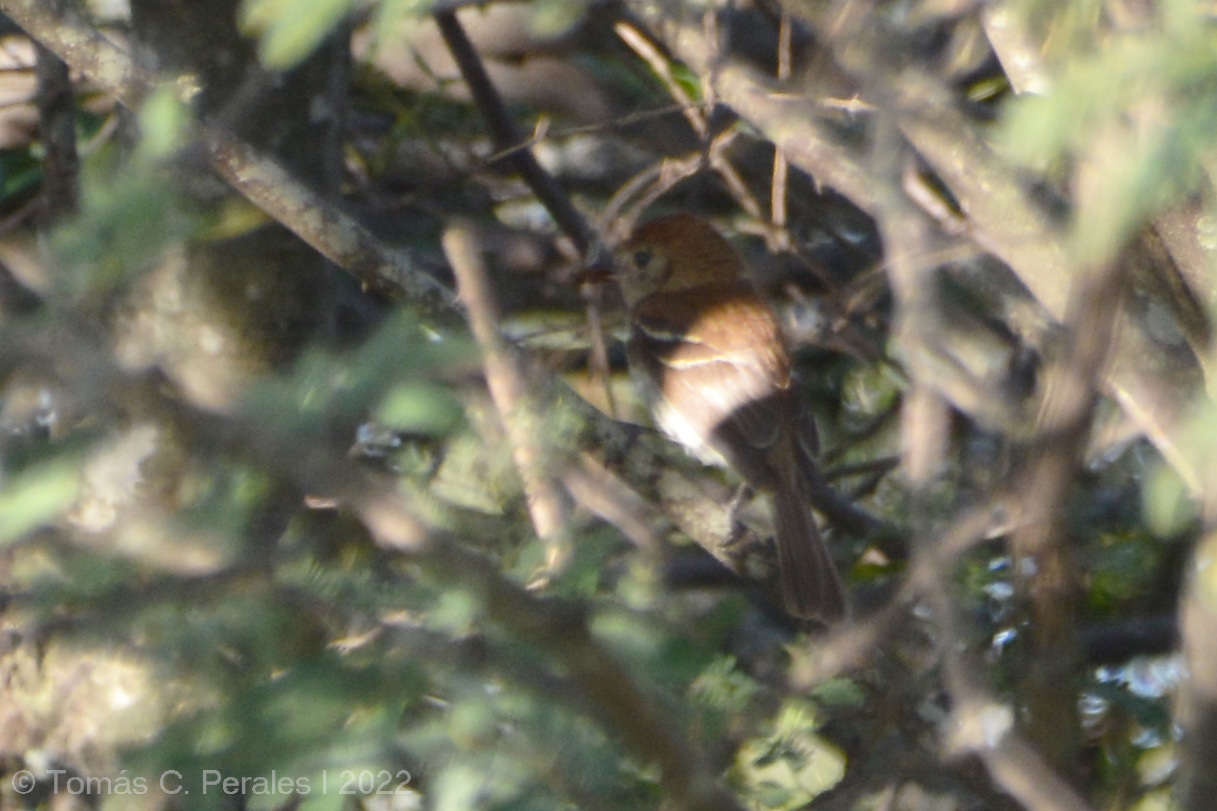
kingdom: Animalia
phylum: Chordata
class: Aves
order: Passeriformes
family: Tyrannidae
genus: Myiophobus
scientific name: Myiophobus fasciatus
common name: Bran-colored flycatcher
